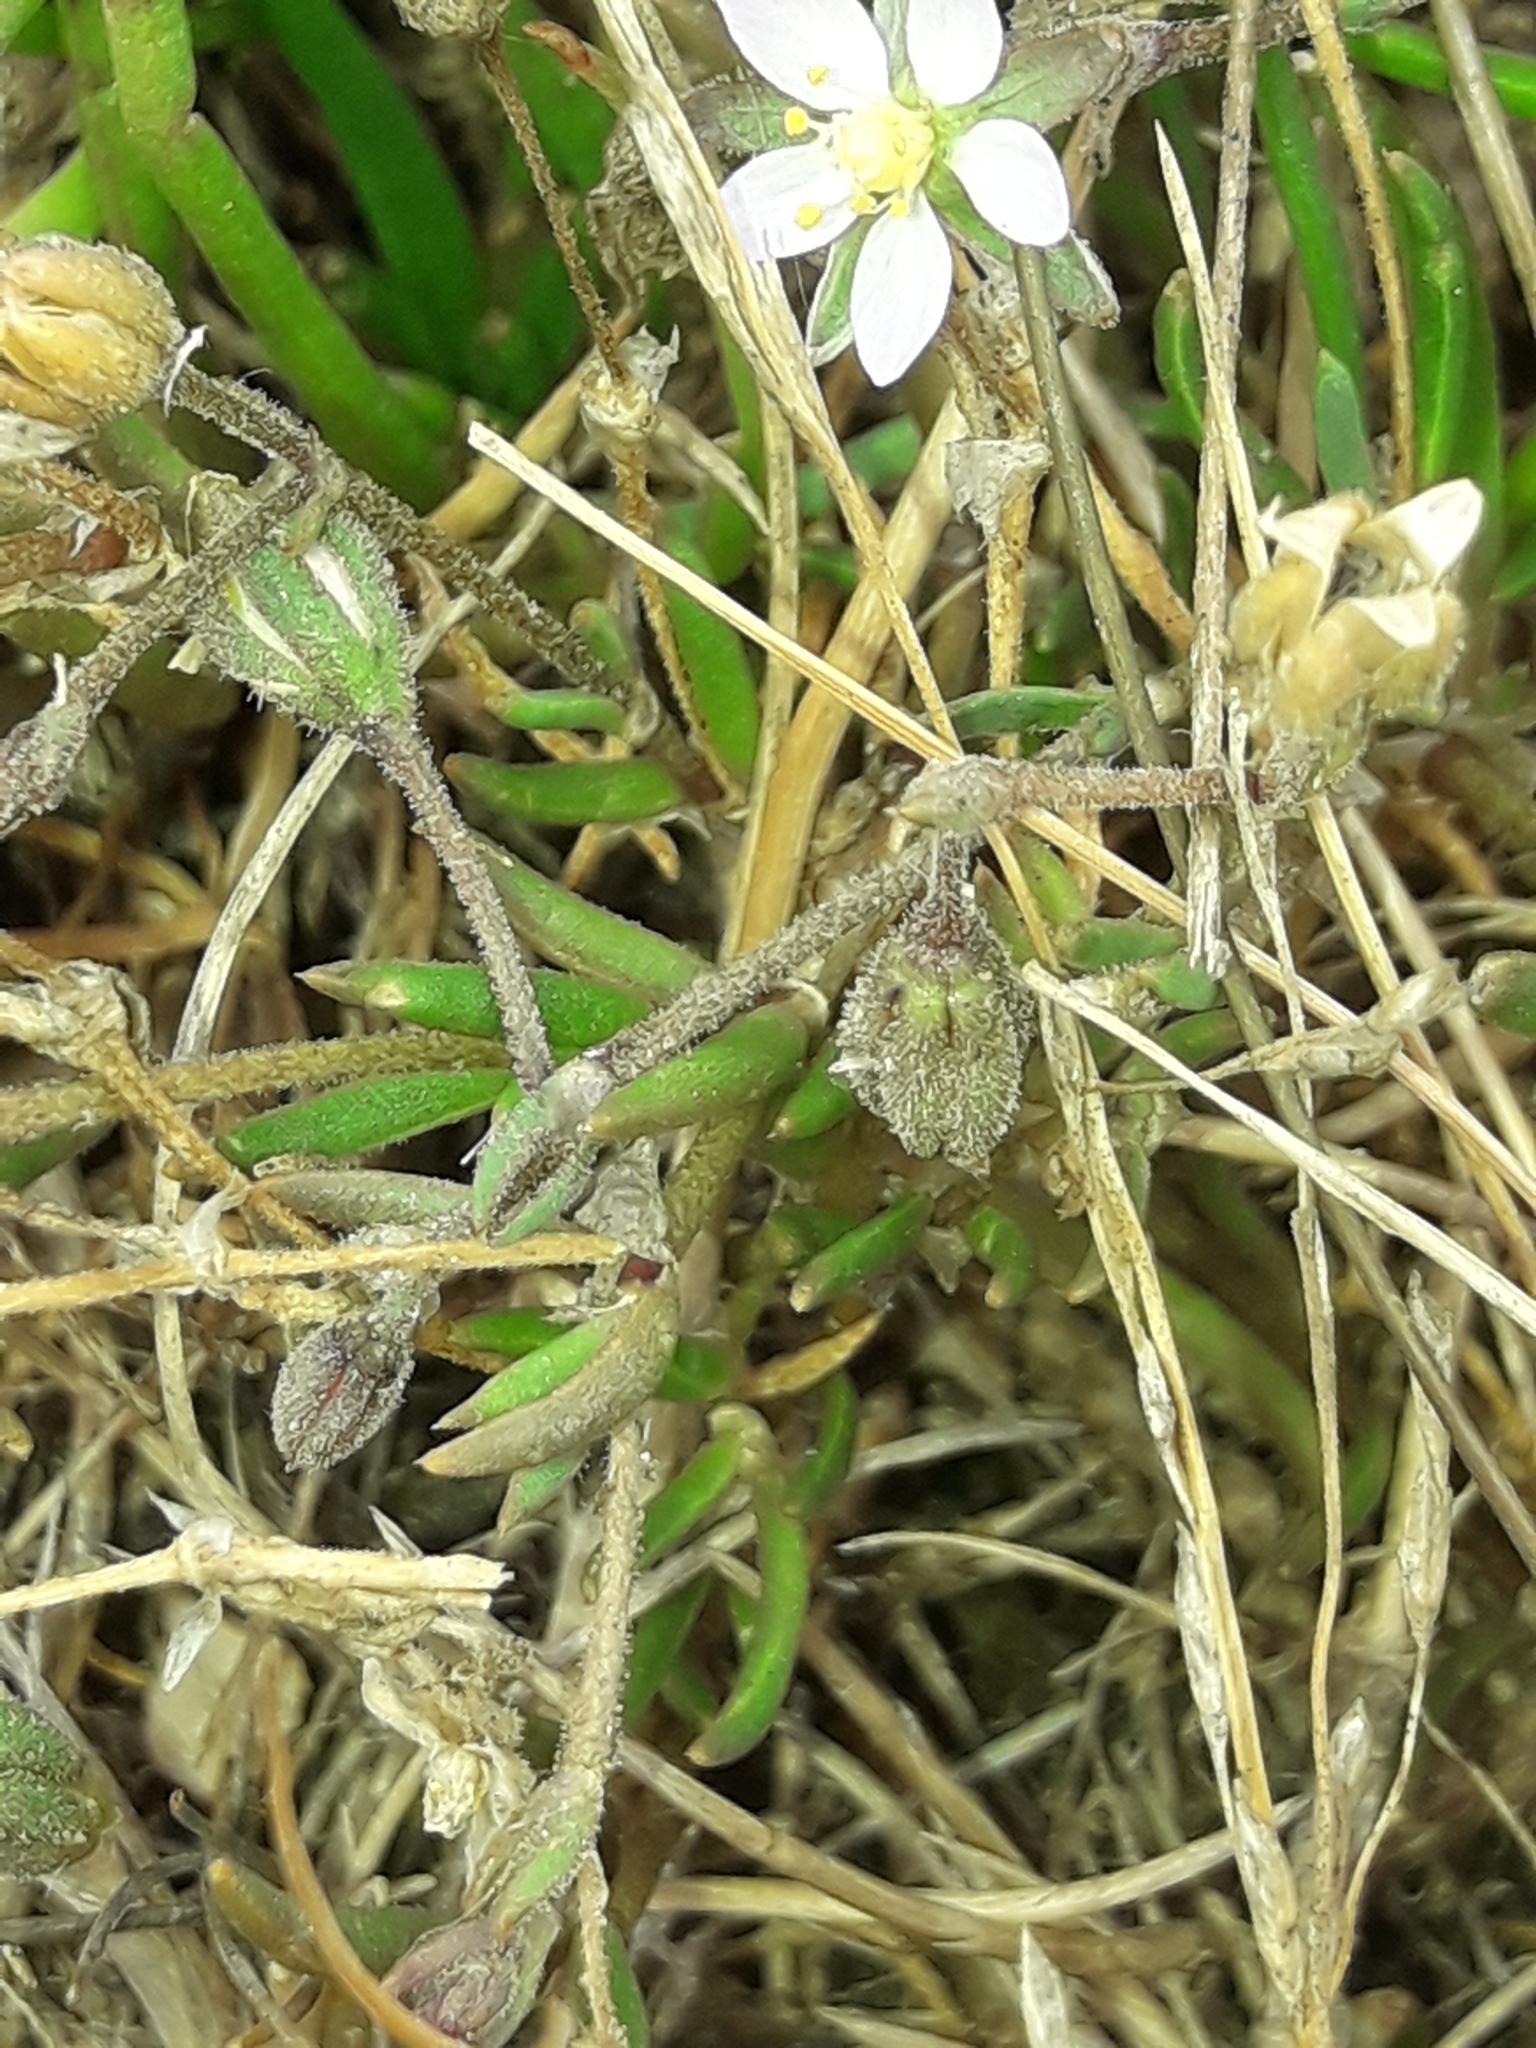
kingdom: Plantae
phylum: Tracheophyta
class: Magnoliopsida
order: Caryophyllales
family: Caryophyllaceae
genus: Spergularia
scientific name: Spergularia media
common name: Greater sea-spurrey
